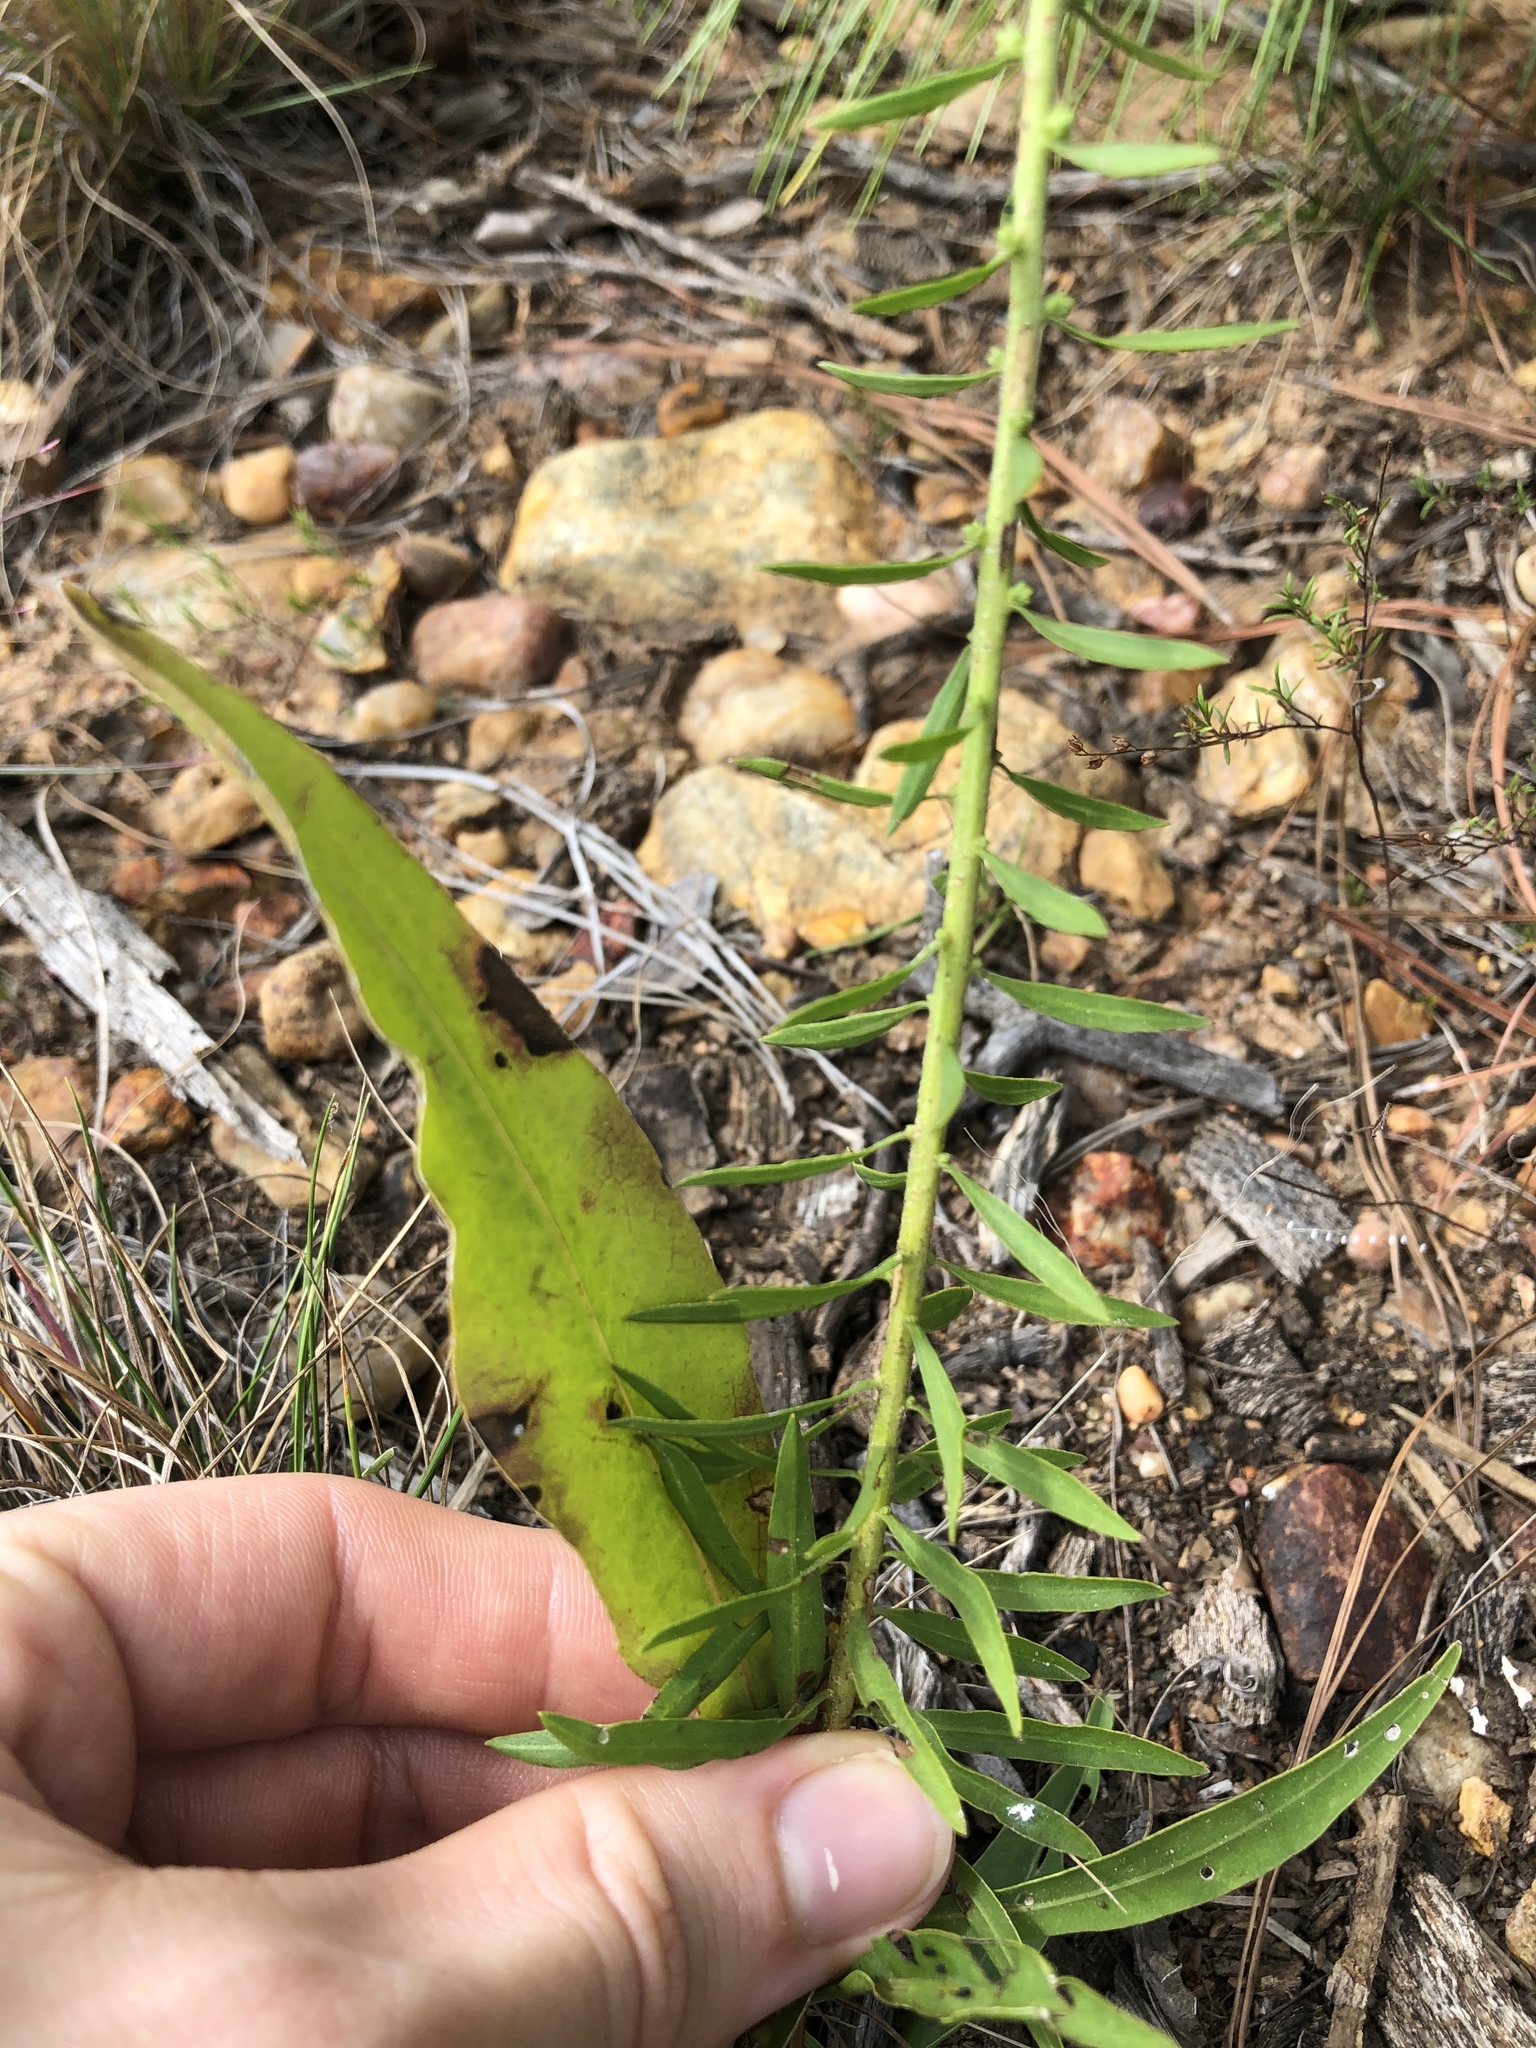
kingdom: Plantae
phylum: Tracheophyta
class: Magnoliopsida
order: Asterales
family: Asteraceae
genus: Liatris
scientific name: Liatris aspera
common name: Lacerate blazing-star
